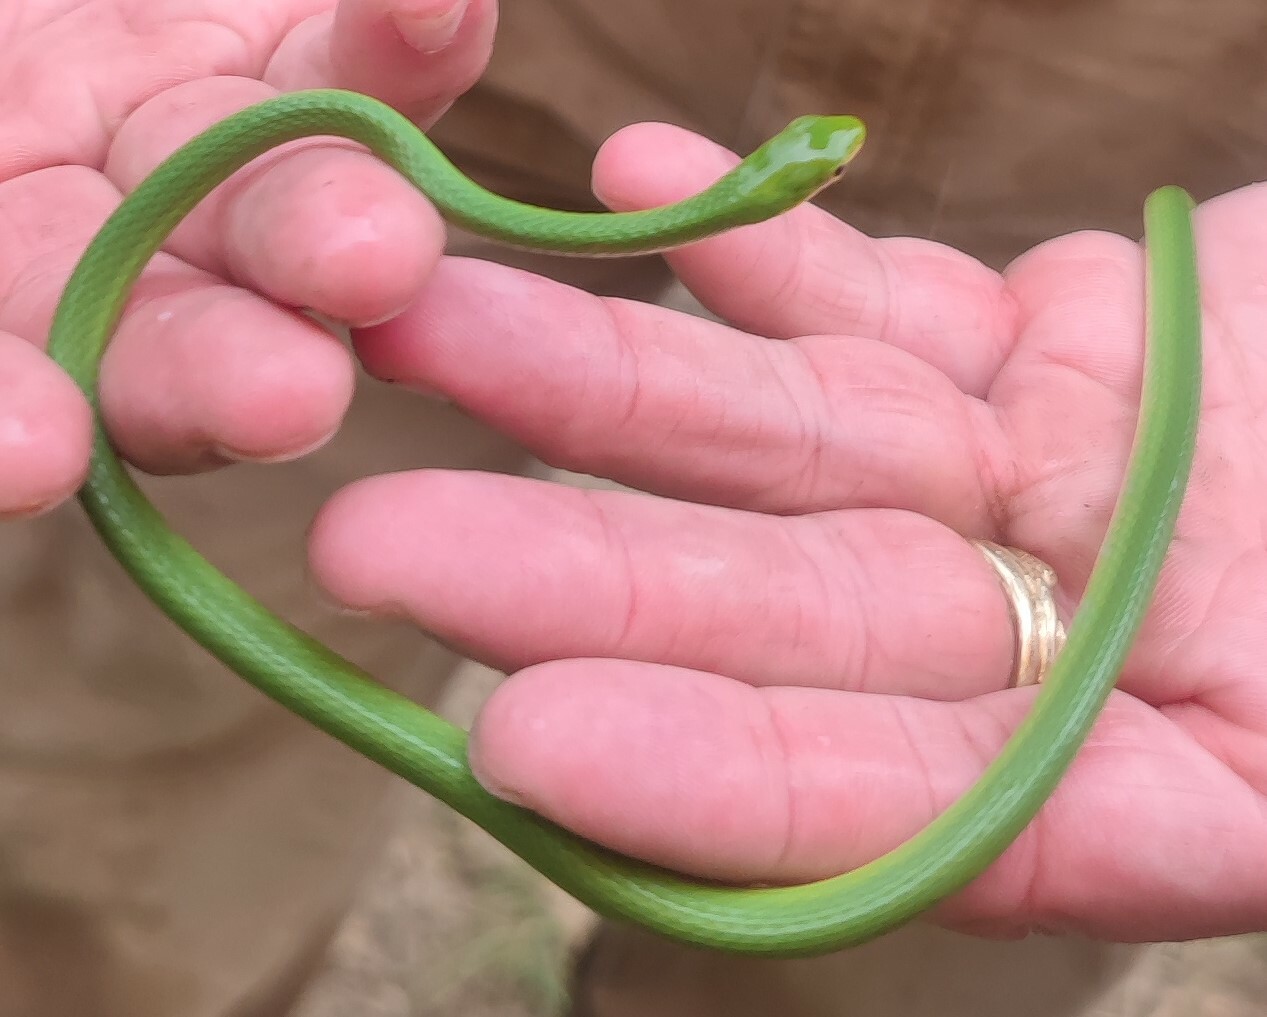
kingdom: Animalia
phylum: Chordata
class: Squamata
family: Colubridae
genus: Opheodrys
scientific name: Opheodrys aestivus
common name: Rough greensnake
